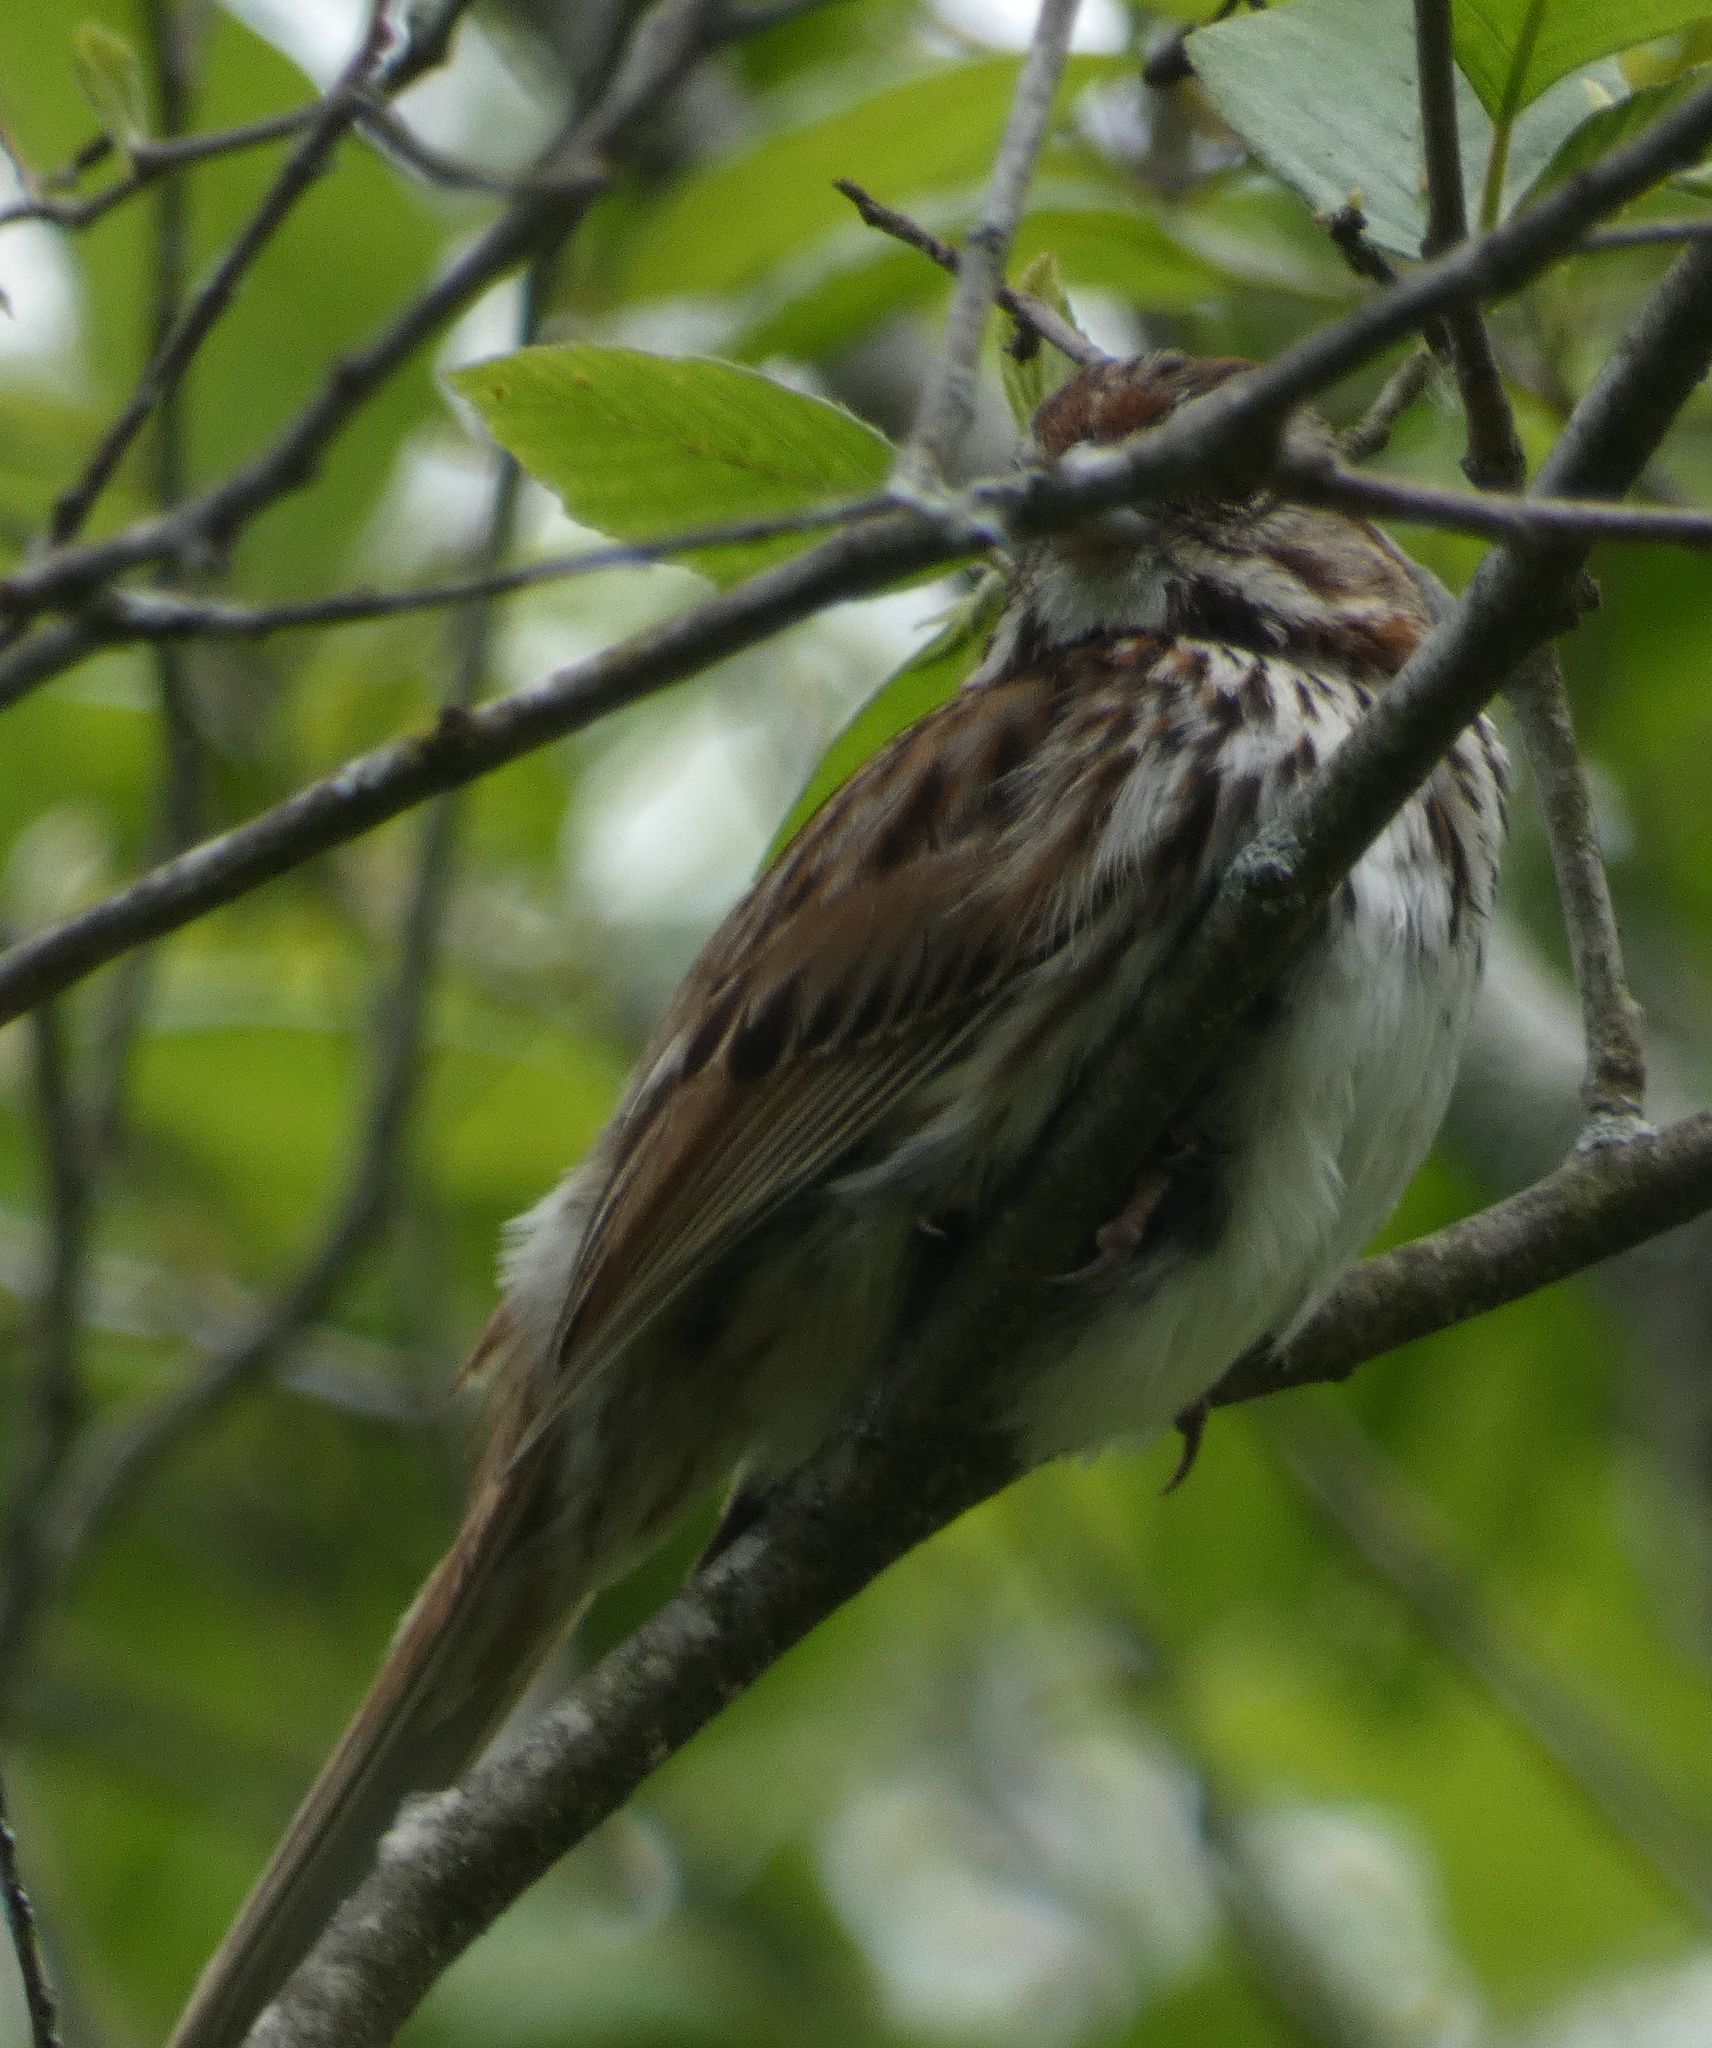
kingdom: Animalia
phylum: Chordata
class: Aves
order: Passeriformes
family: Passerellidae
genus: Melospiza
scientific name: Melospiza melodia
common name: Song sparrow
